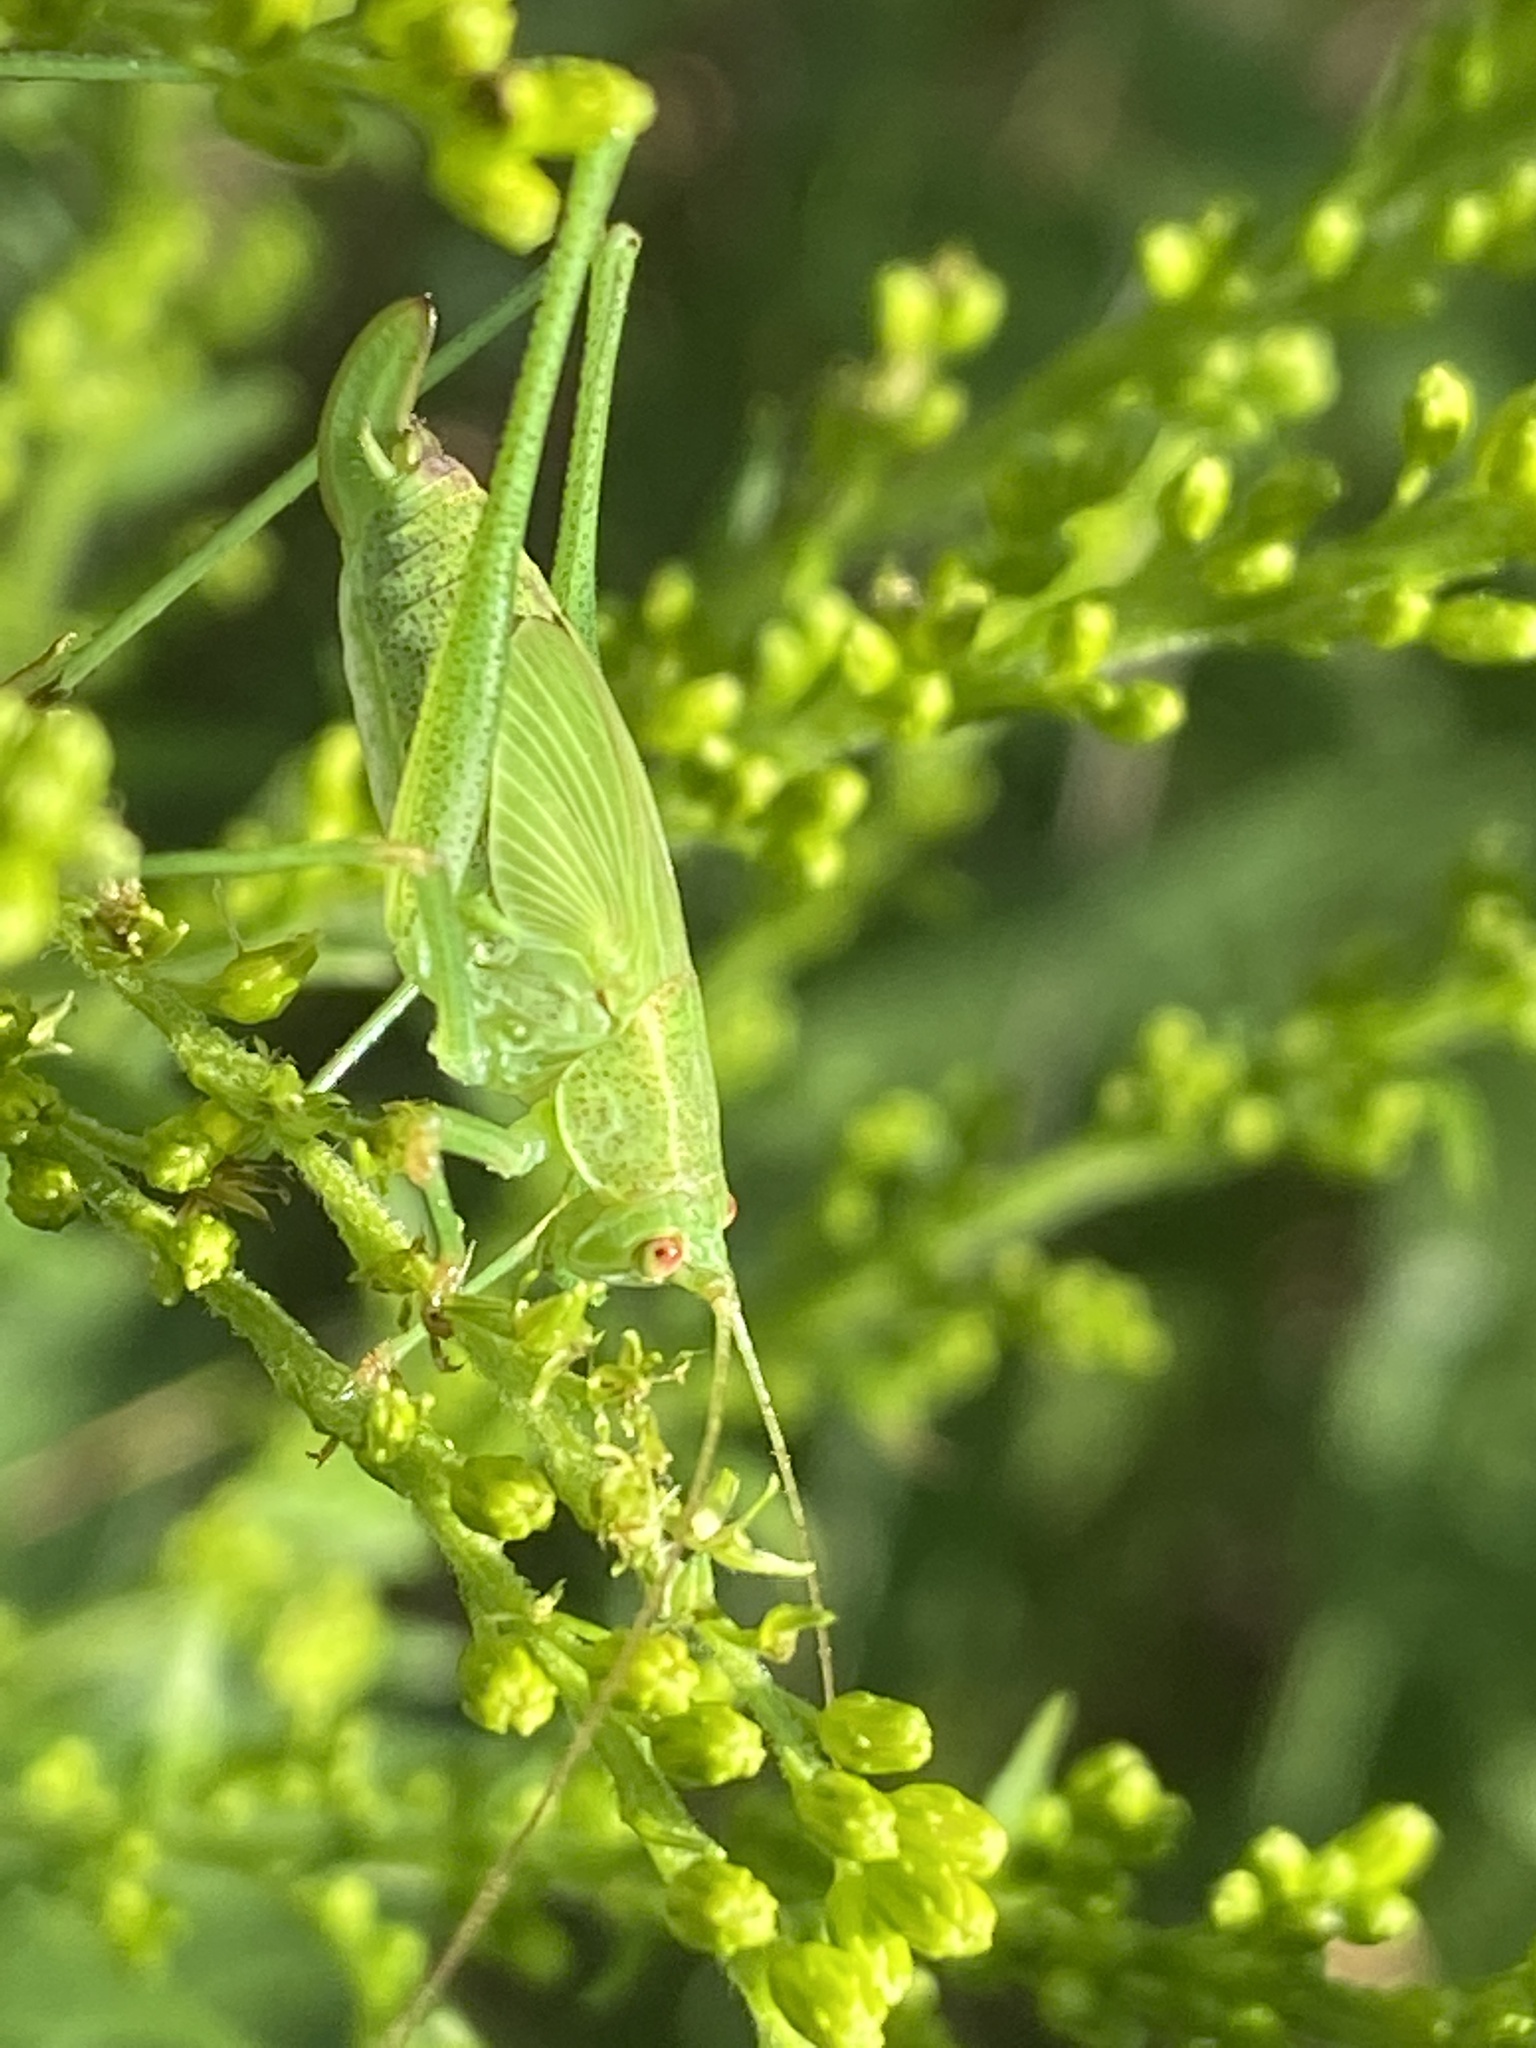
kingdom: Animalia
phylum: Arthropoda
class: Insecta
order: Orthoptera
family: Tettigoniidae
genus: Phaneroptera
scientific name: Phaneroptera falcata
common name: Sickle-bearing bush-cricket
